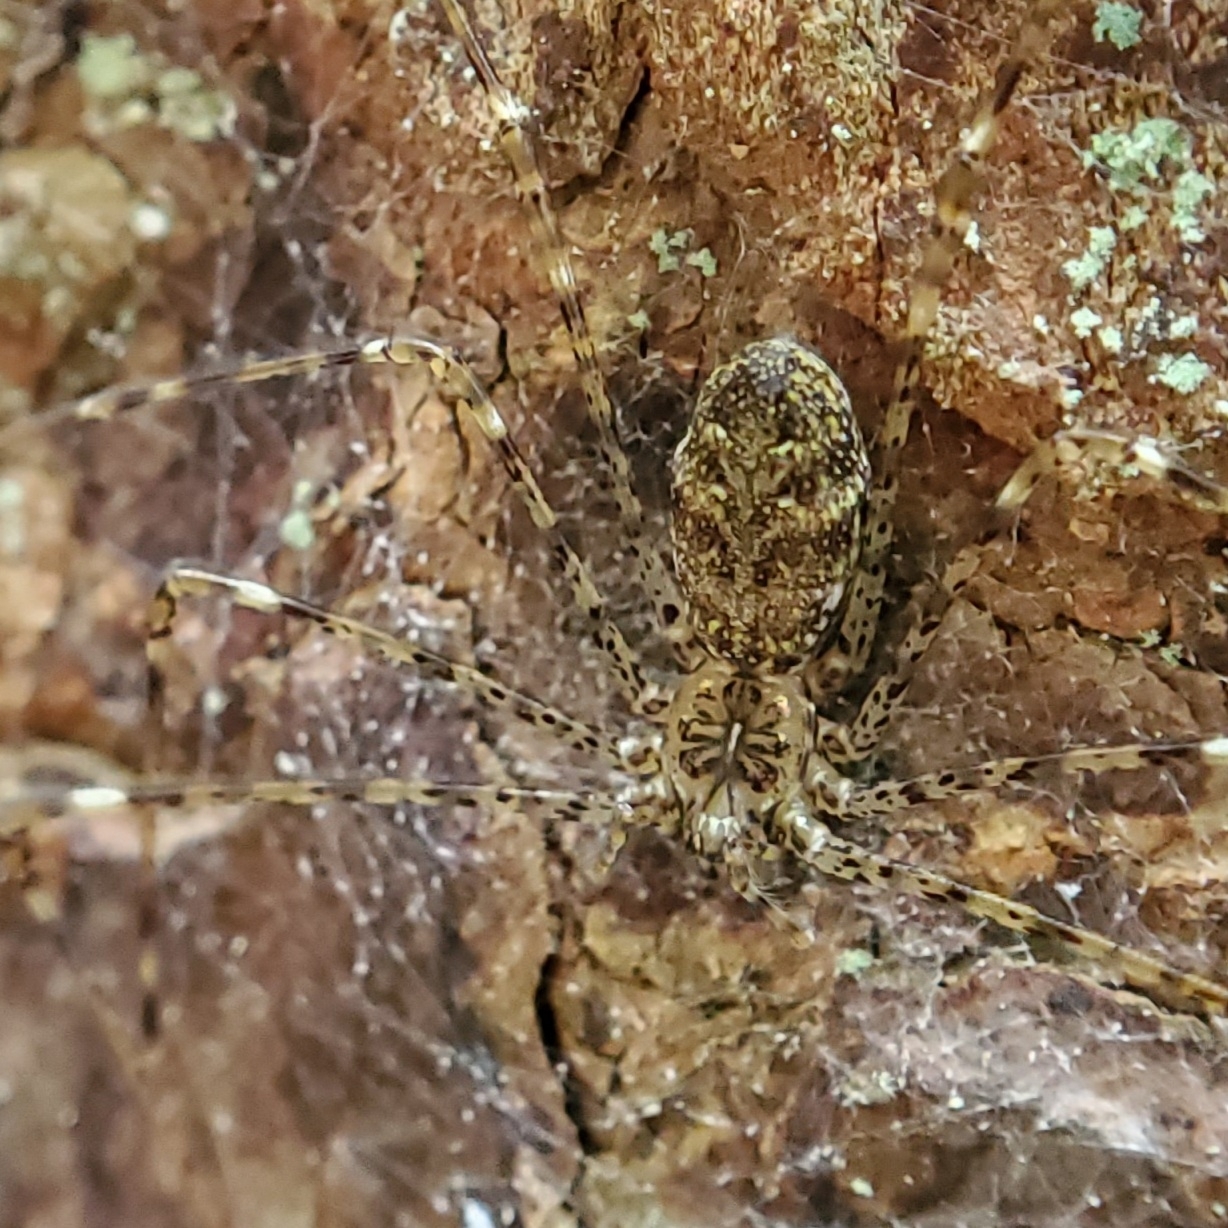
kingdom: Animalia
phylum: Arthropoda
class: Arachnida
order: Araneae
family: Hypochilidae
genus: Hypochilus
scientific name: Hypochilus pococki
